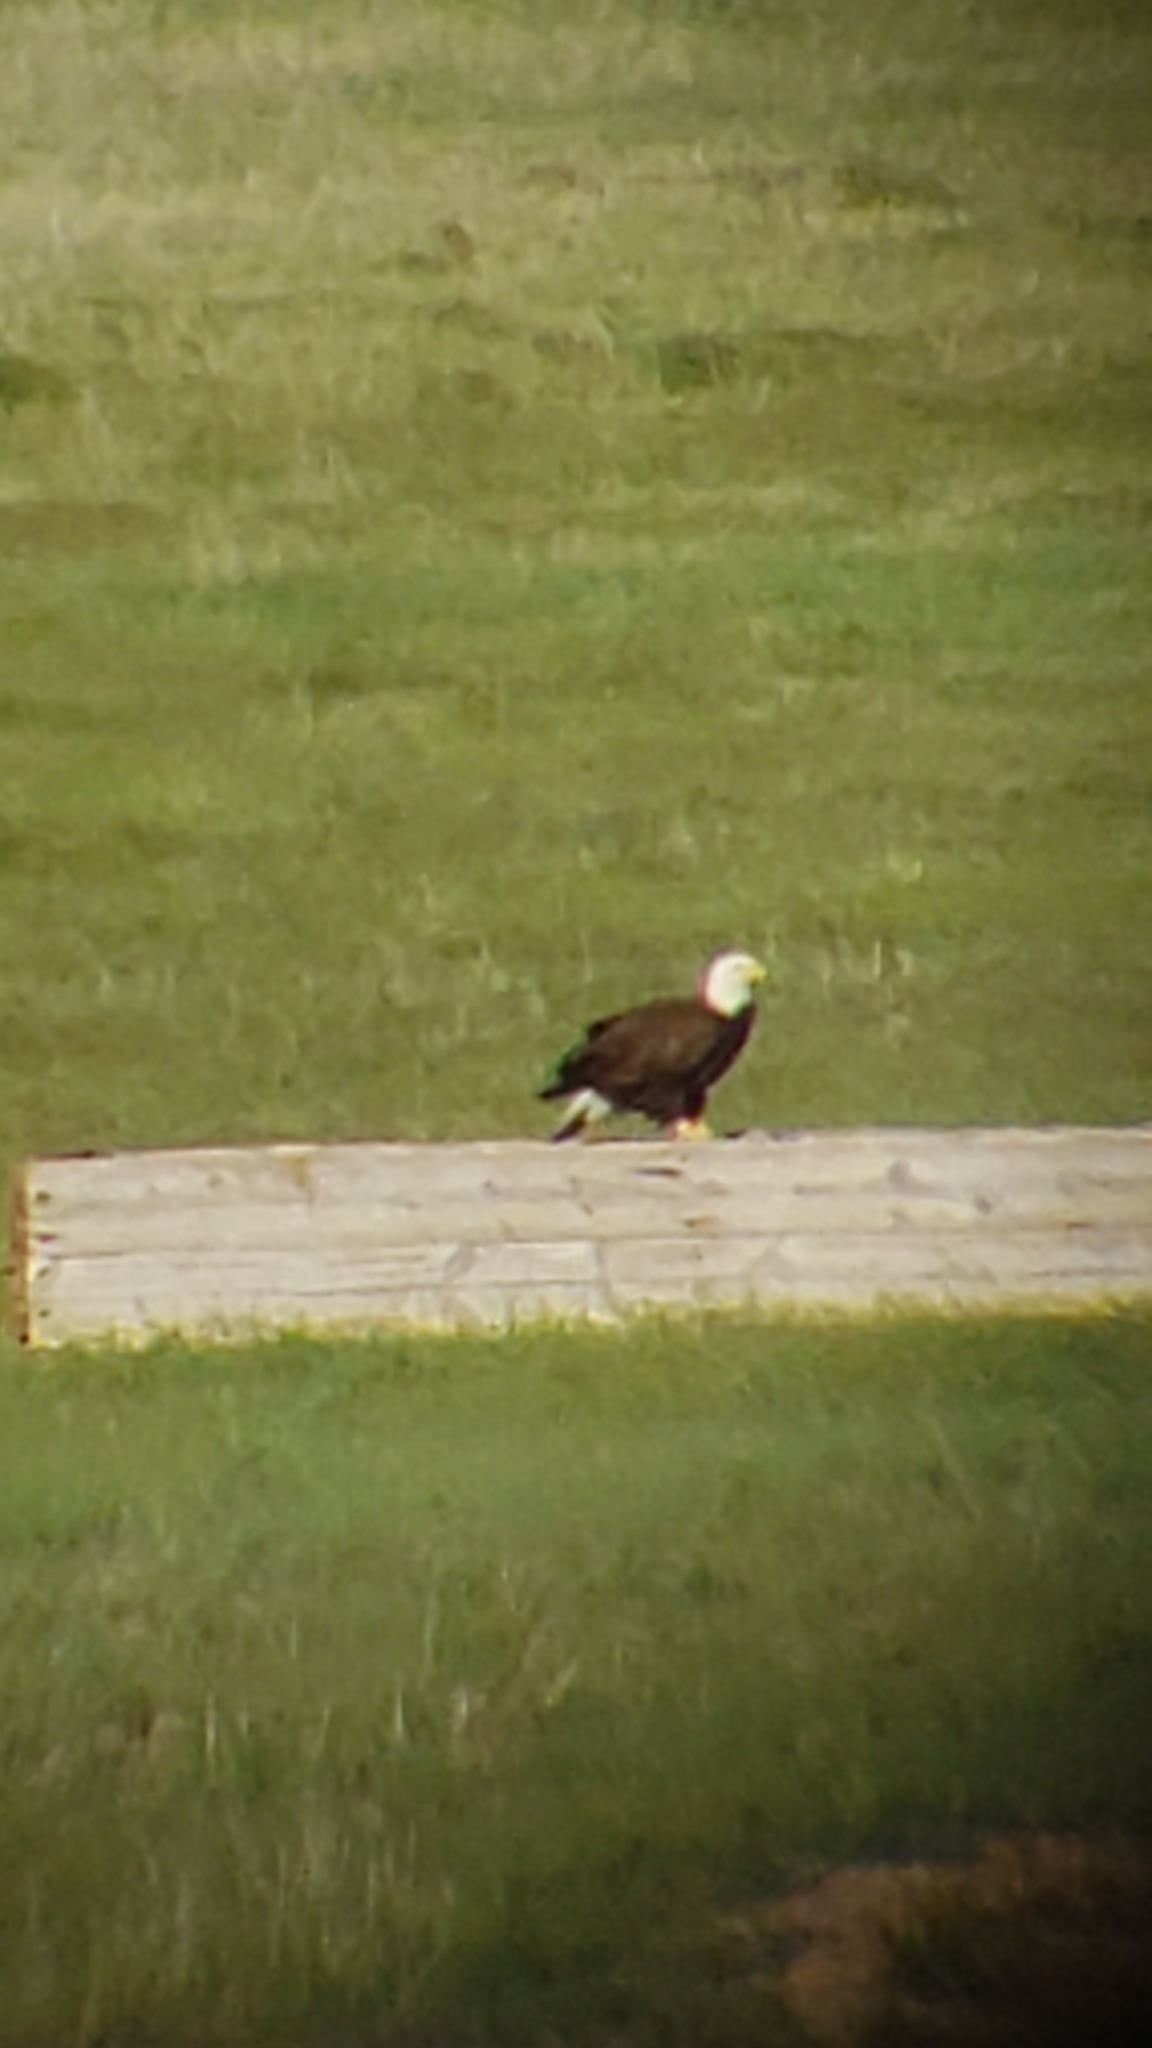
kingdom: Animalia
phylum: Chordata
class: Aves
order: Accipitriformes
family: Accipitridae
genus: Haliaeetus
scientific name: Haliaeetus leucocephalus
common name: Bald eagle
